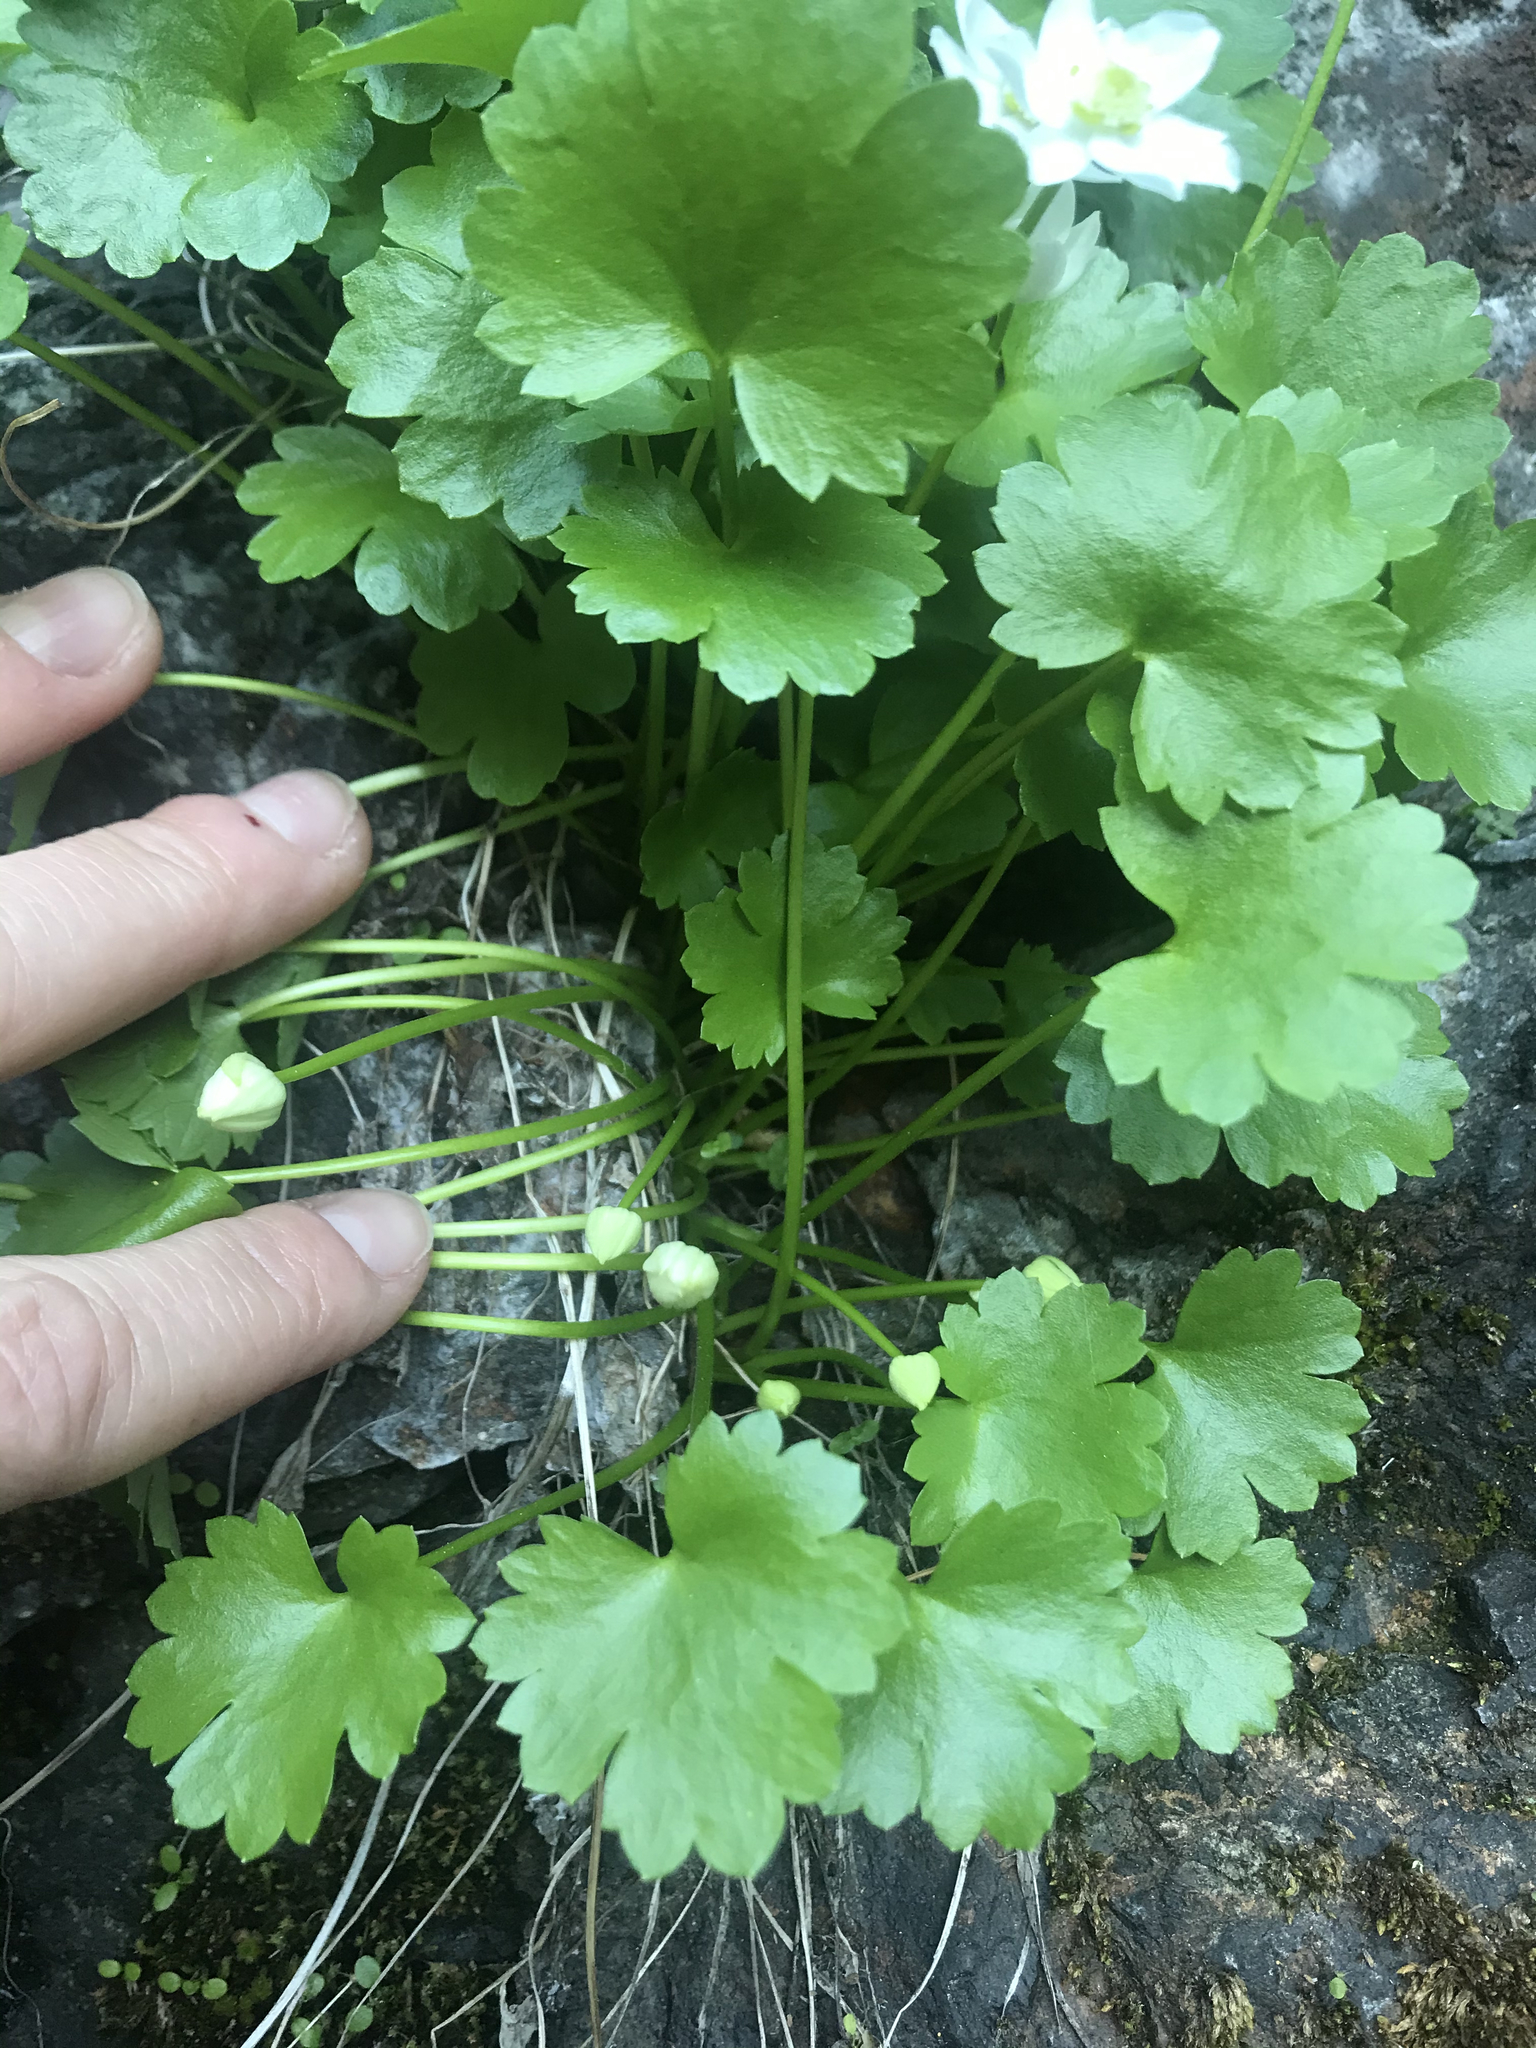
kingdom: Plantae
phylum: Tracheophyta
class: Magnoliopsida
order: Ranunculales
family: Ranunculaceae
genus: Kumlienia
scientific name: Kumlienia hystricula
